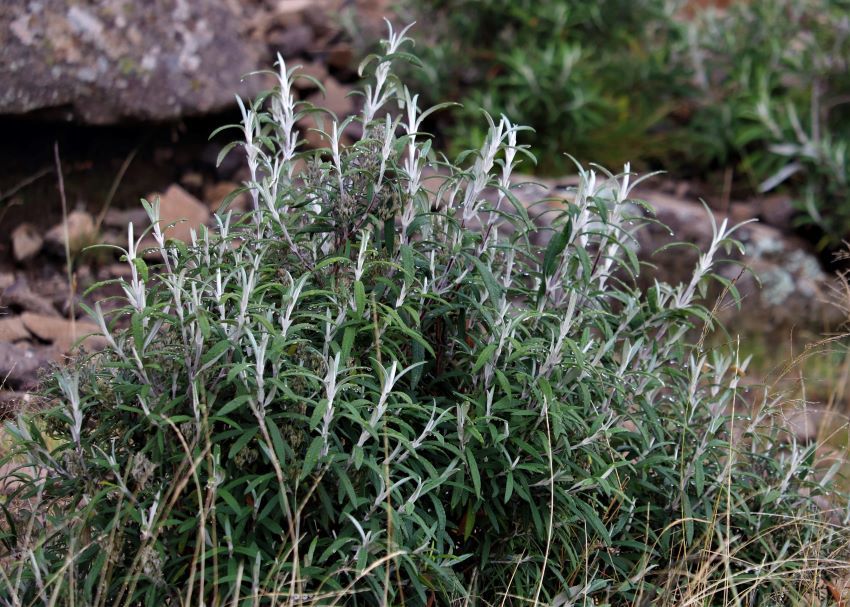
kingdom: Plantae
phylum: Tracheophyta
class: Magnoliopsida
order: Lamiales
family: Scrophulariaceae
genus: Buddleja
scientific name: Buddleja loricata
